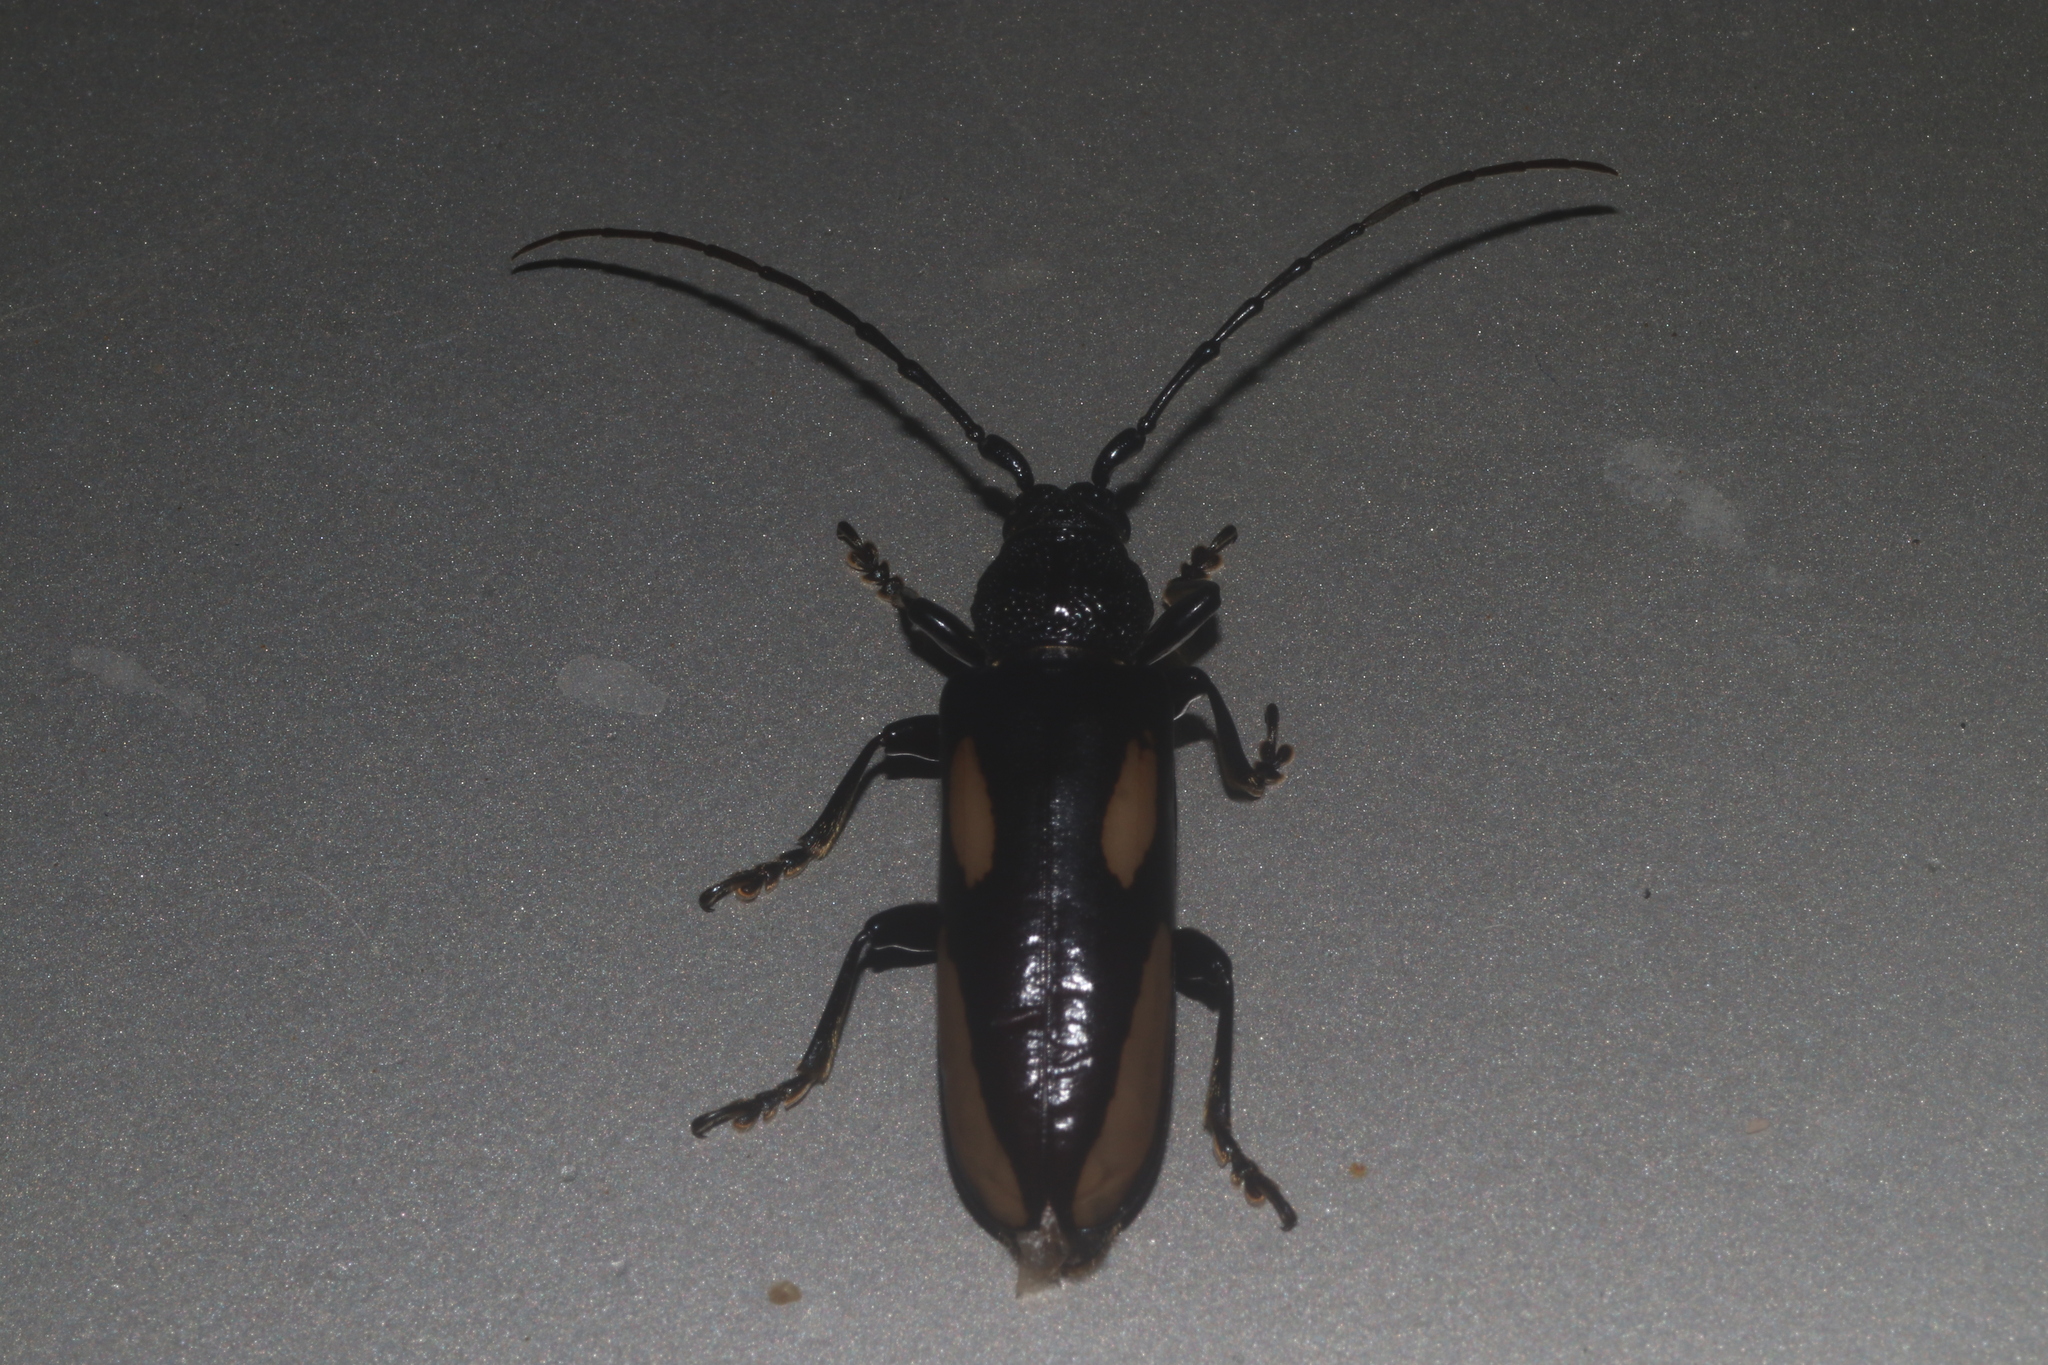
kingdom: Animalia
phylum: Arthropoda
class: Insecta
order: Coleoptera
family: Cerambycidae
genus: Poeciloxestia
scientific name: Poeciloxestia lanceolata
